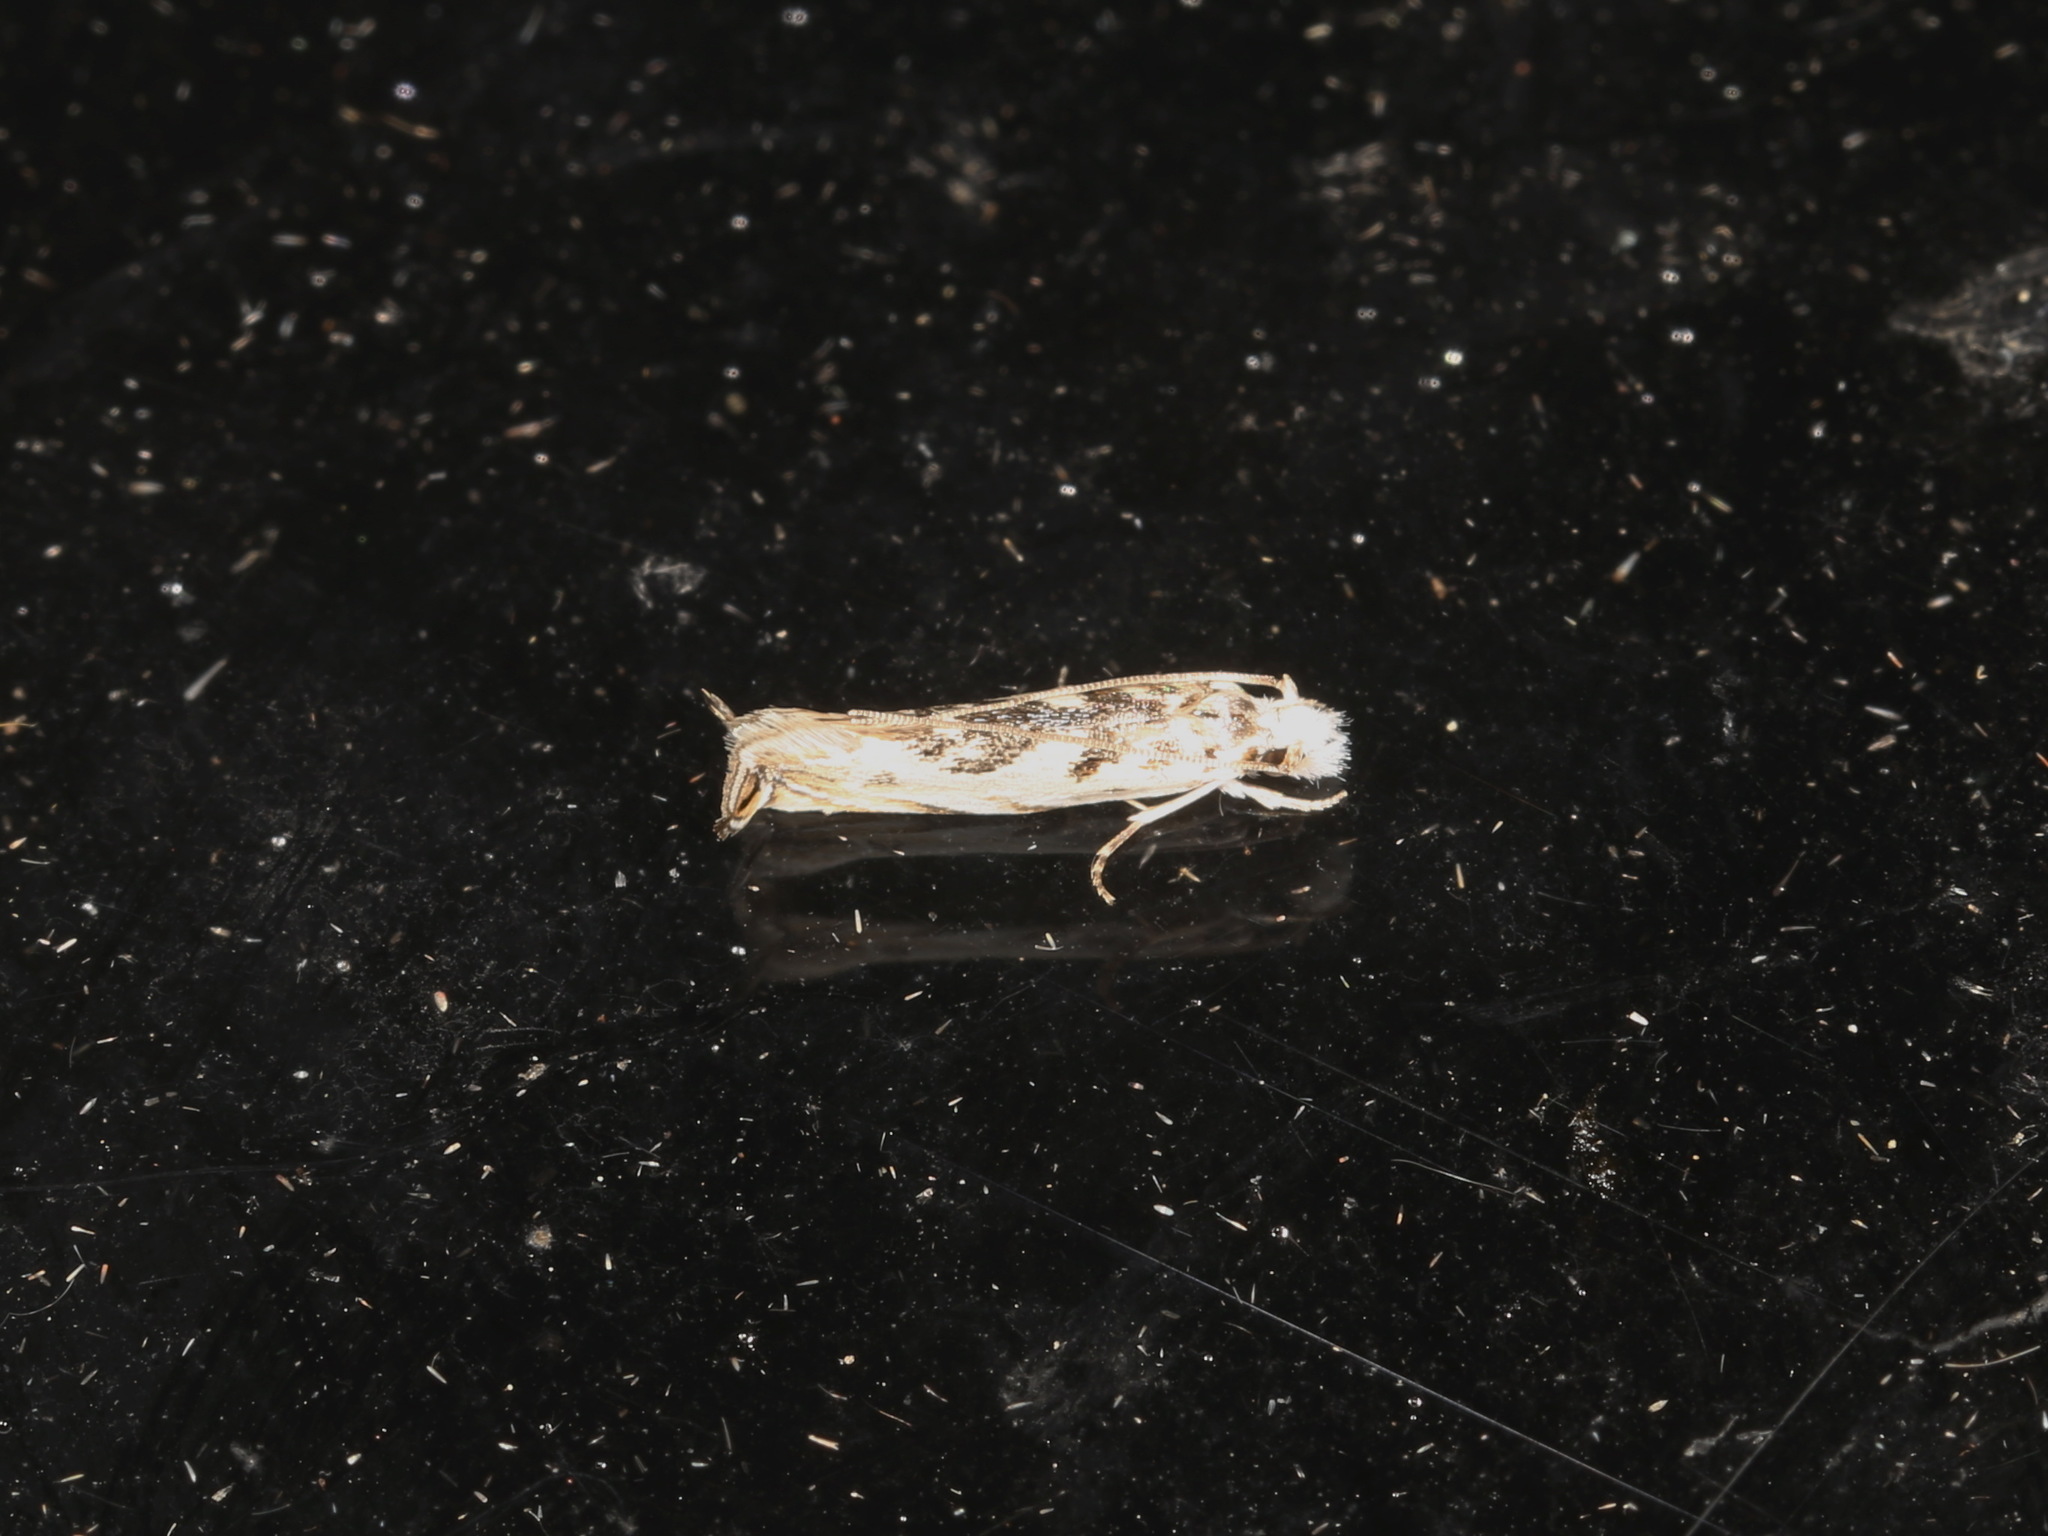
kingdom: Animalia
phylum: Arthropoda
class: Insecta
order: Lepidoptera
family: Tineidae
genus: Erechthias
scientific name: Erechthias mystacinella
